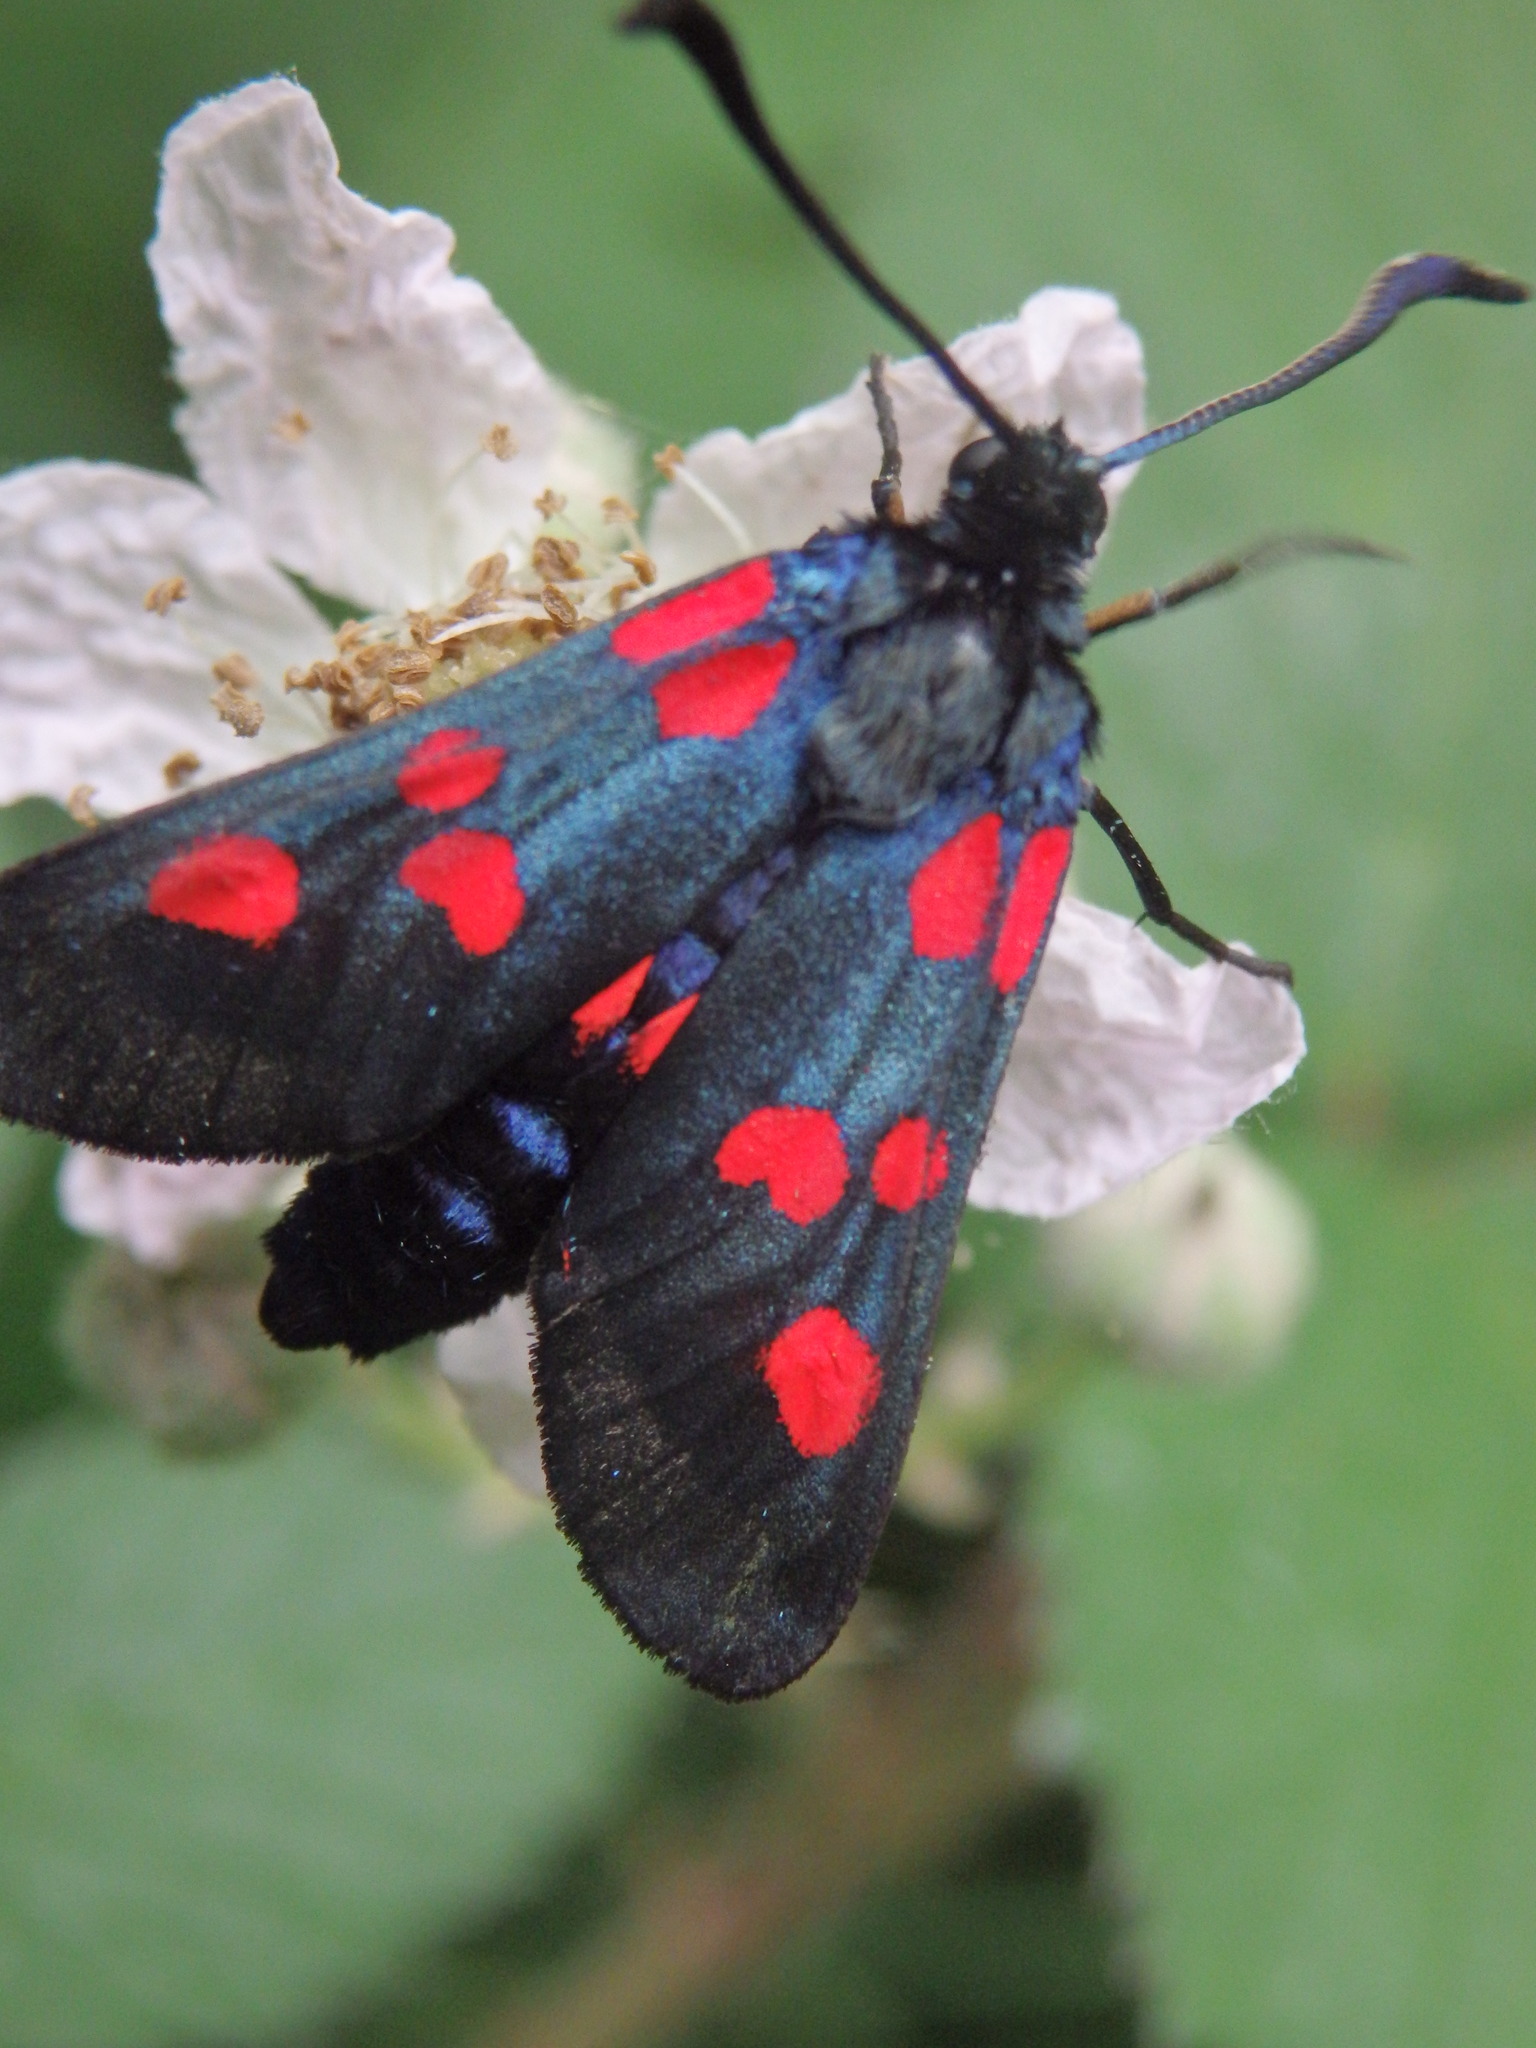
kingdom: Animalia
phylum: Arthropoda
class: Insecta
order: Lepidoptera
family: Zygaenidae
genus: Zygaena
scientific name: Zygaena trifolii
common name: Five-spot burnet
